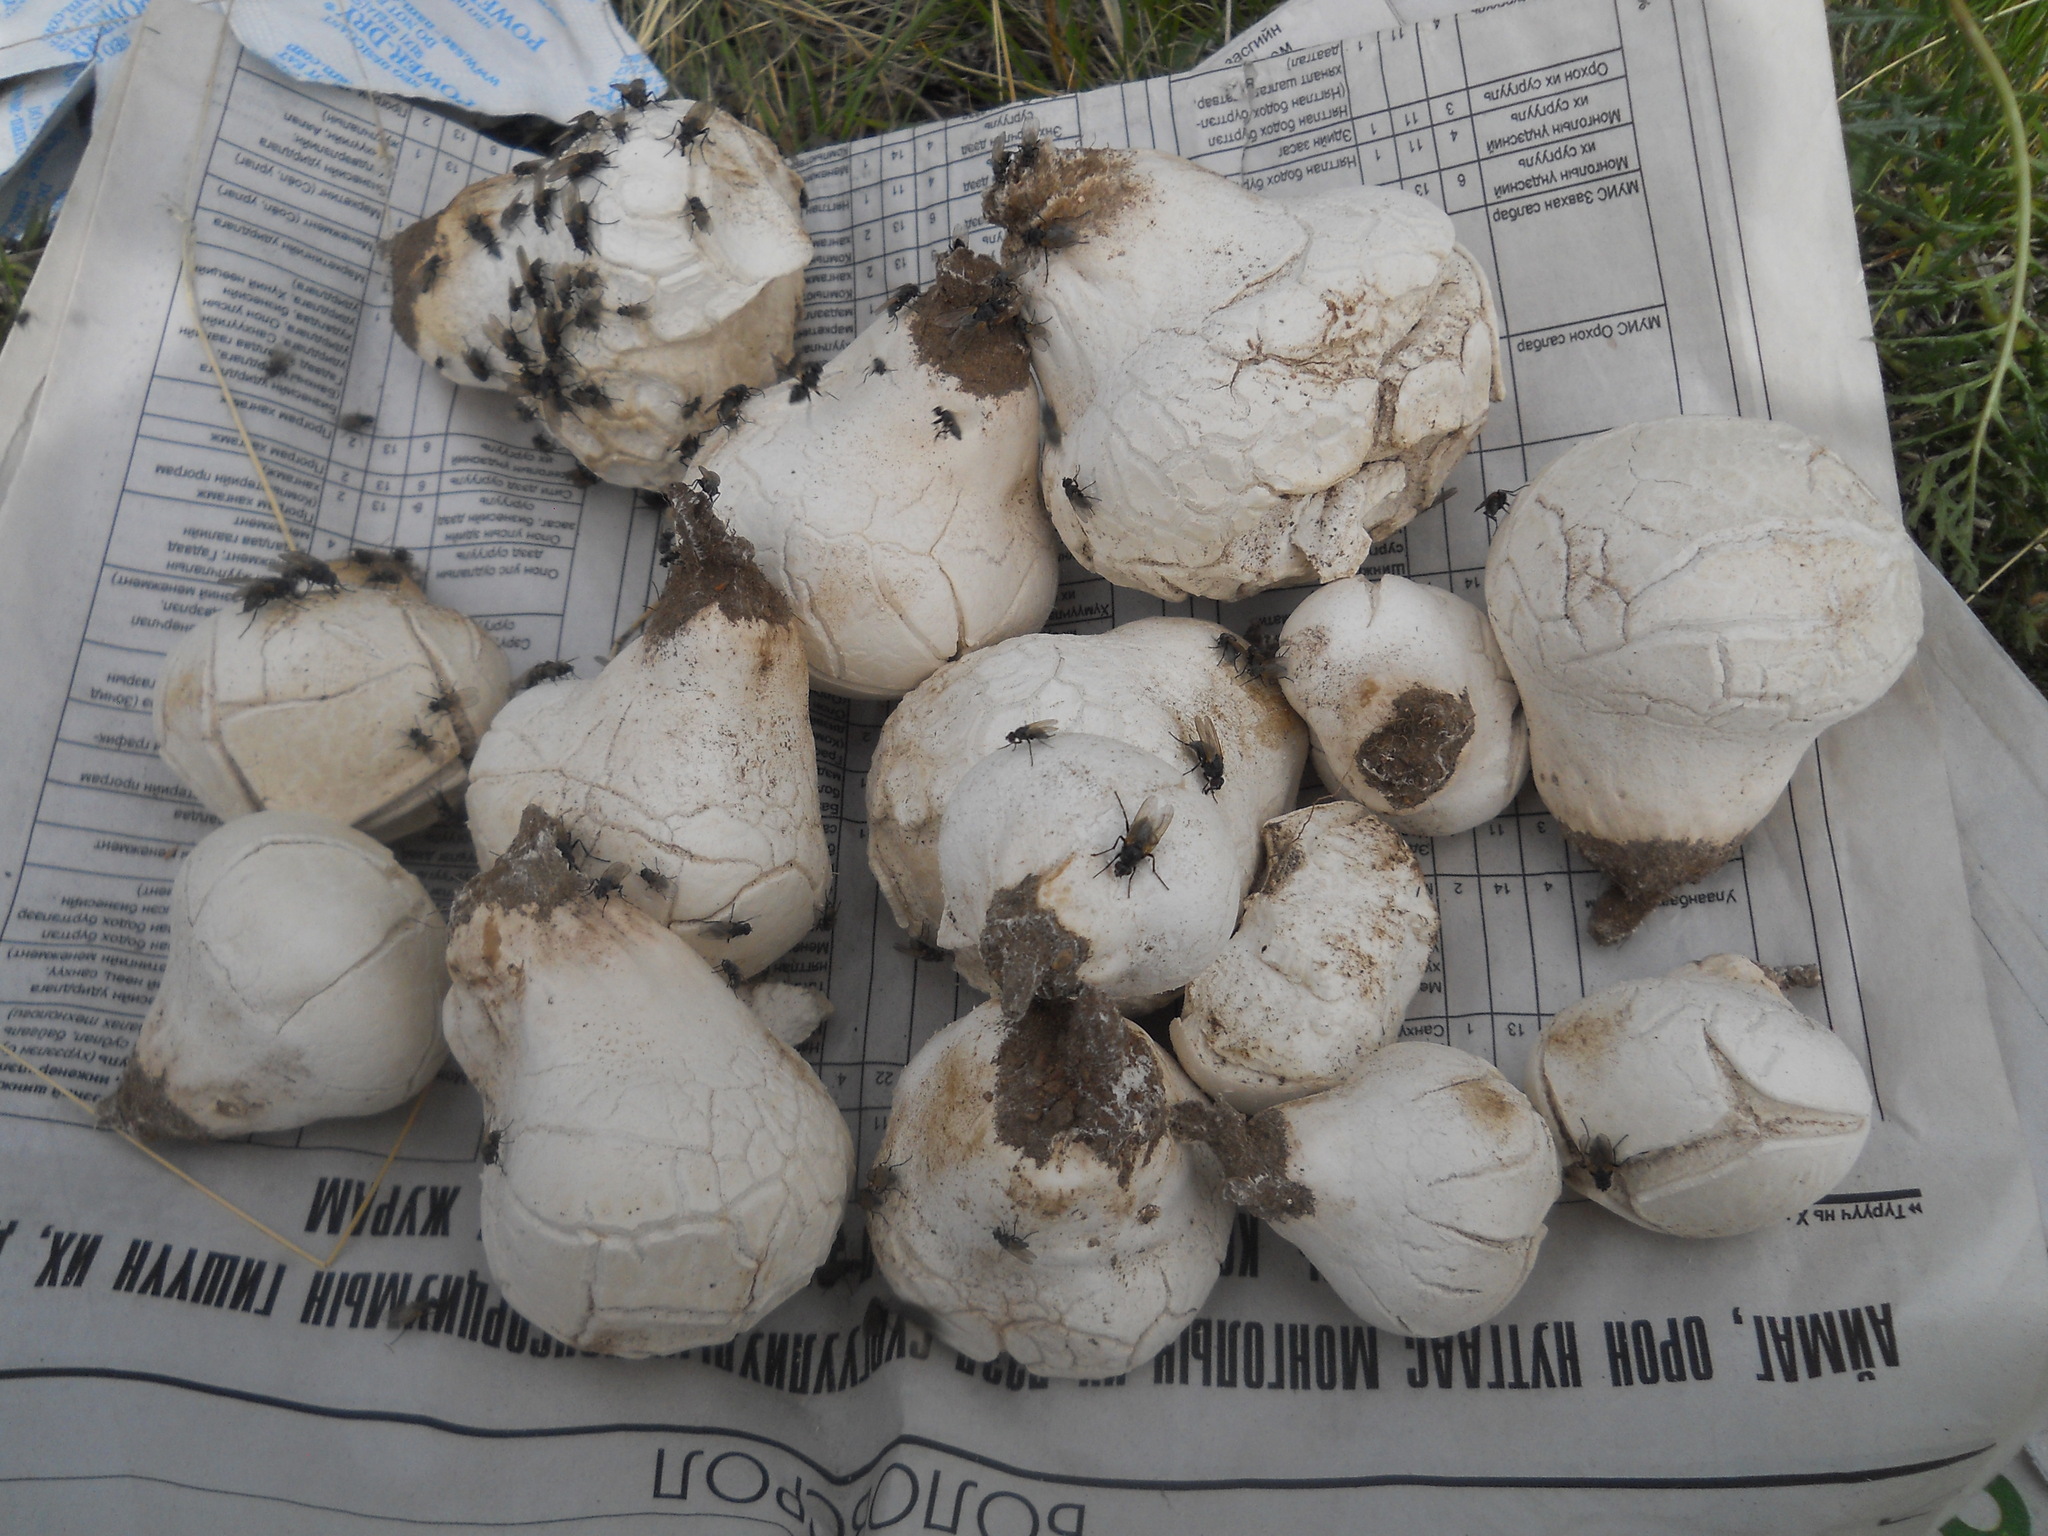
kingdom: Fungi
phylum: Basidiomycota
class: Agaricomycetes
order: Agaricales
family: Lycoperdaceae
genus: Calbovista
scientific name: Calbovista subsculpta
